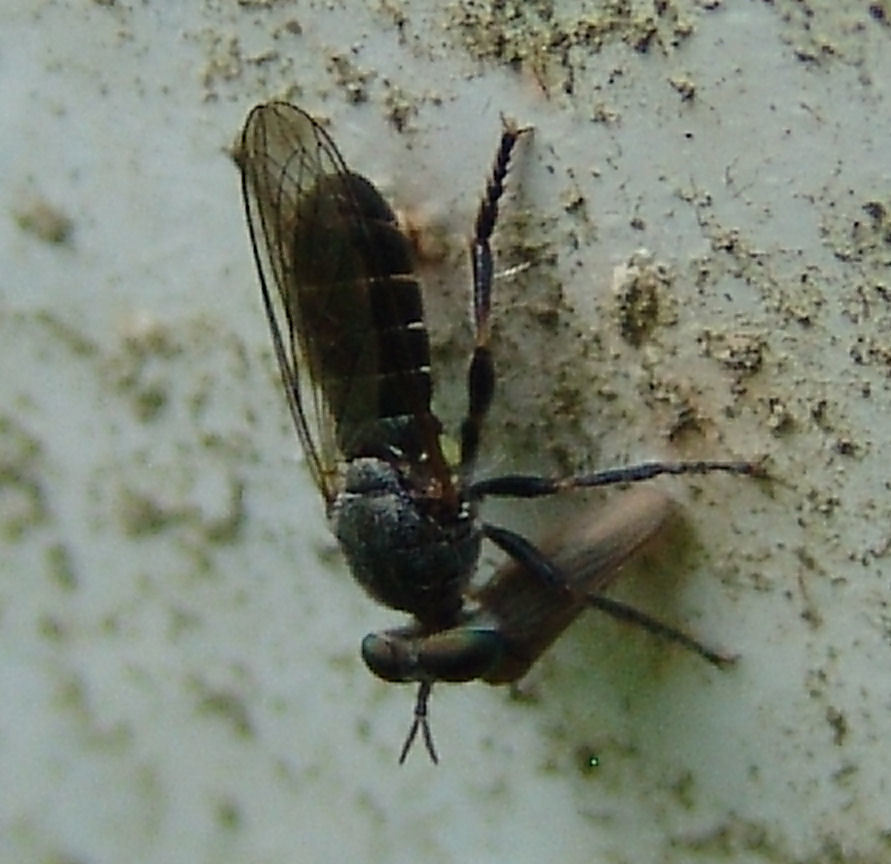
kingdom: Animalia
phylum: Arthropoda
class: Insecta
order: Diptera
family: Asilidae
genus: Atomosia
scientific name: Atomosia puella
